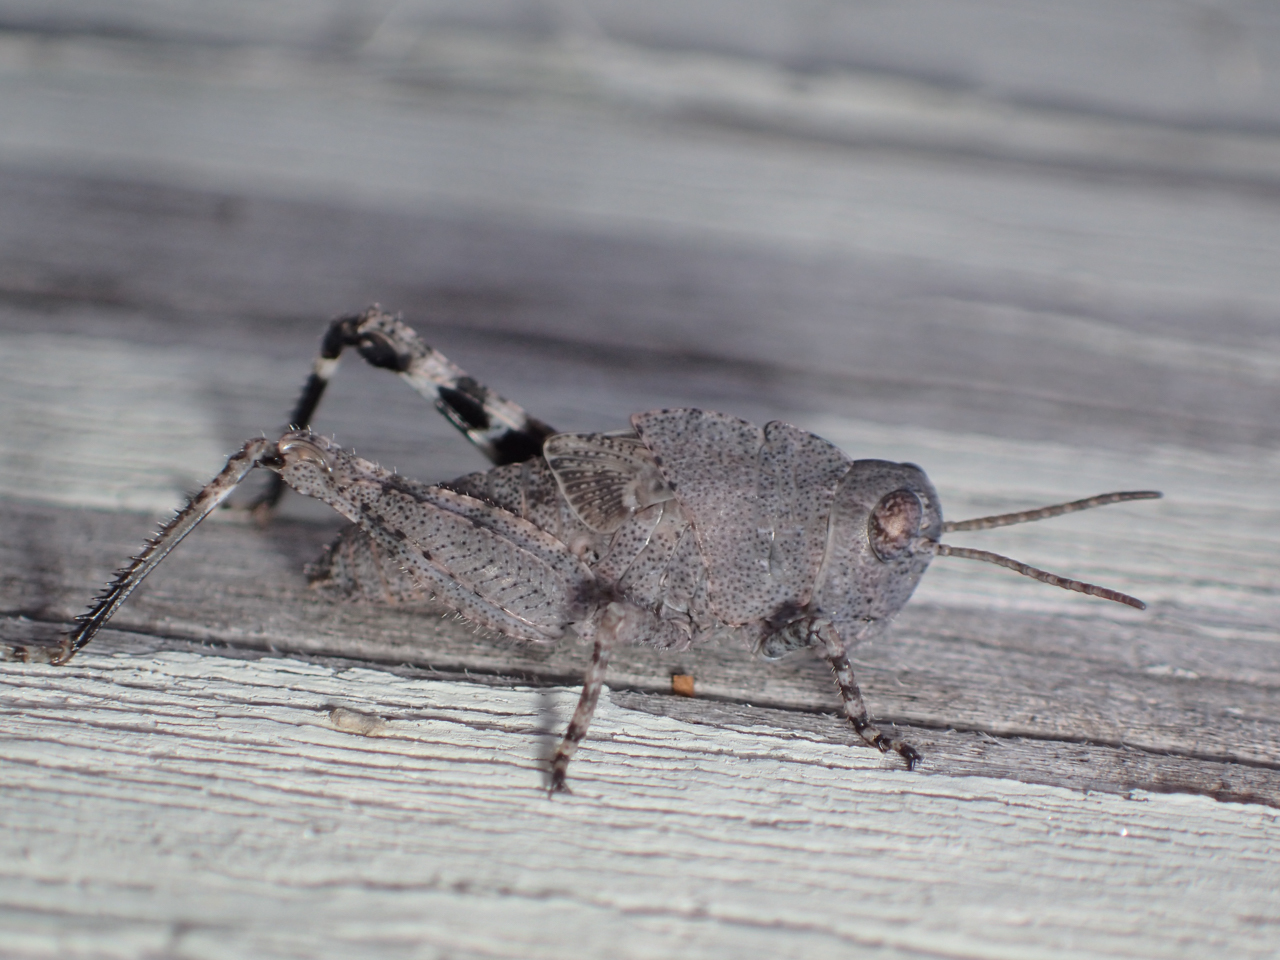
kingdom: Animalia
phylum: Arthropoda
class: Insecta
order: Orthoptera
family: Acrididae
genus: Dissosteira
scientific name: Dissosteira carolina
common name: Carolina grasshopper
